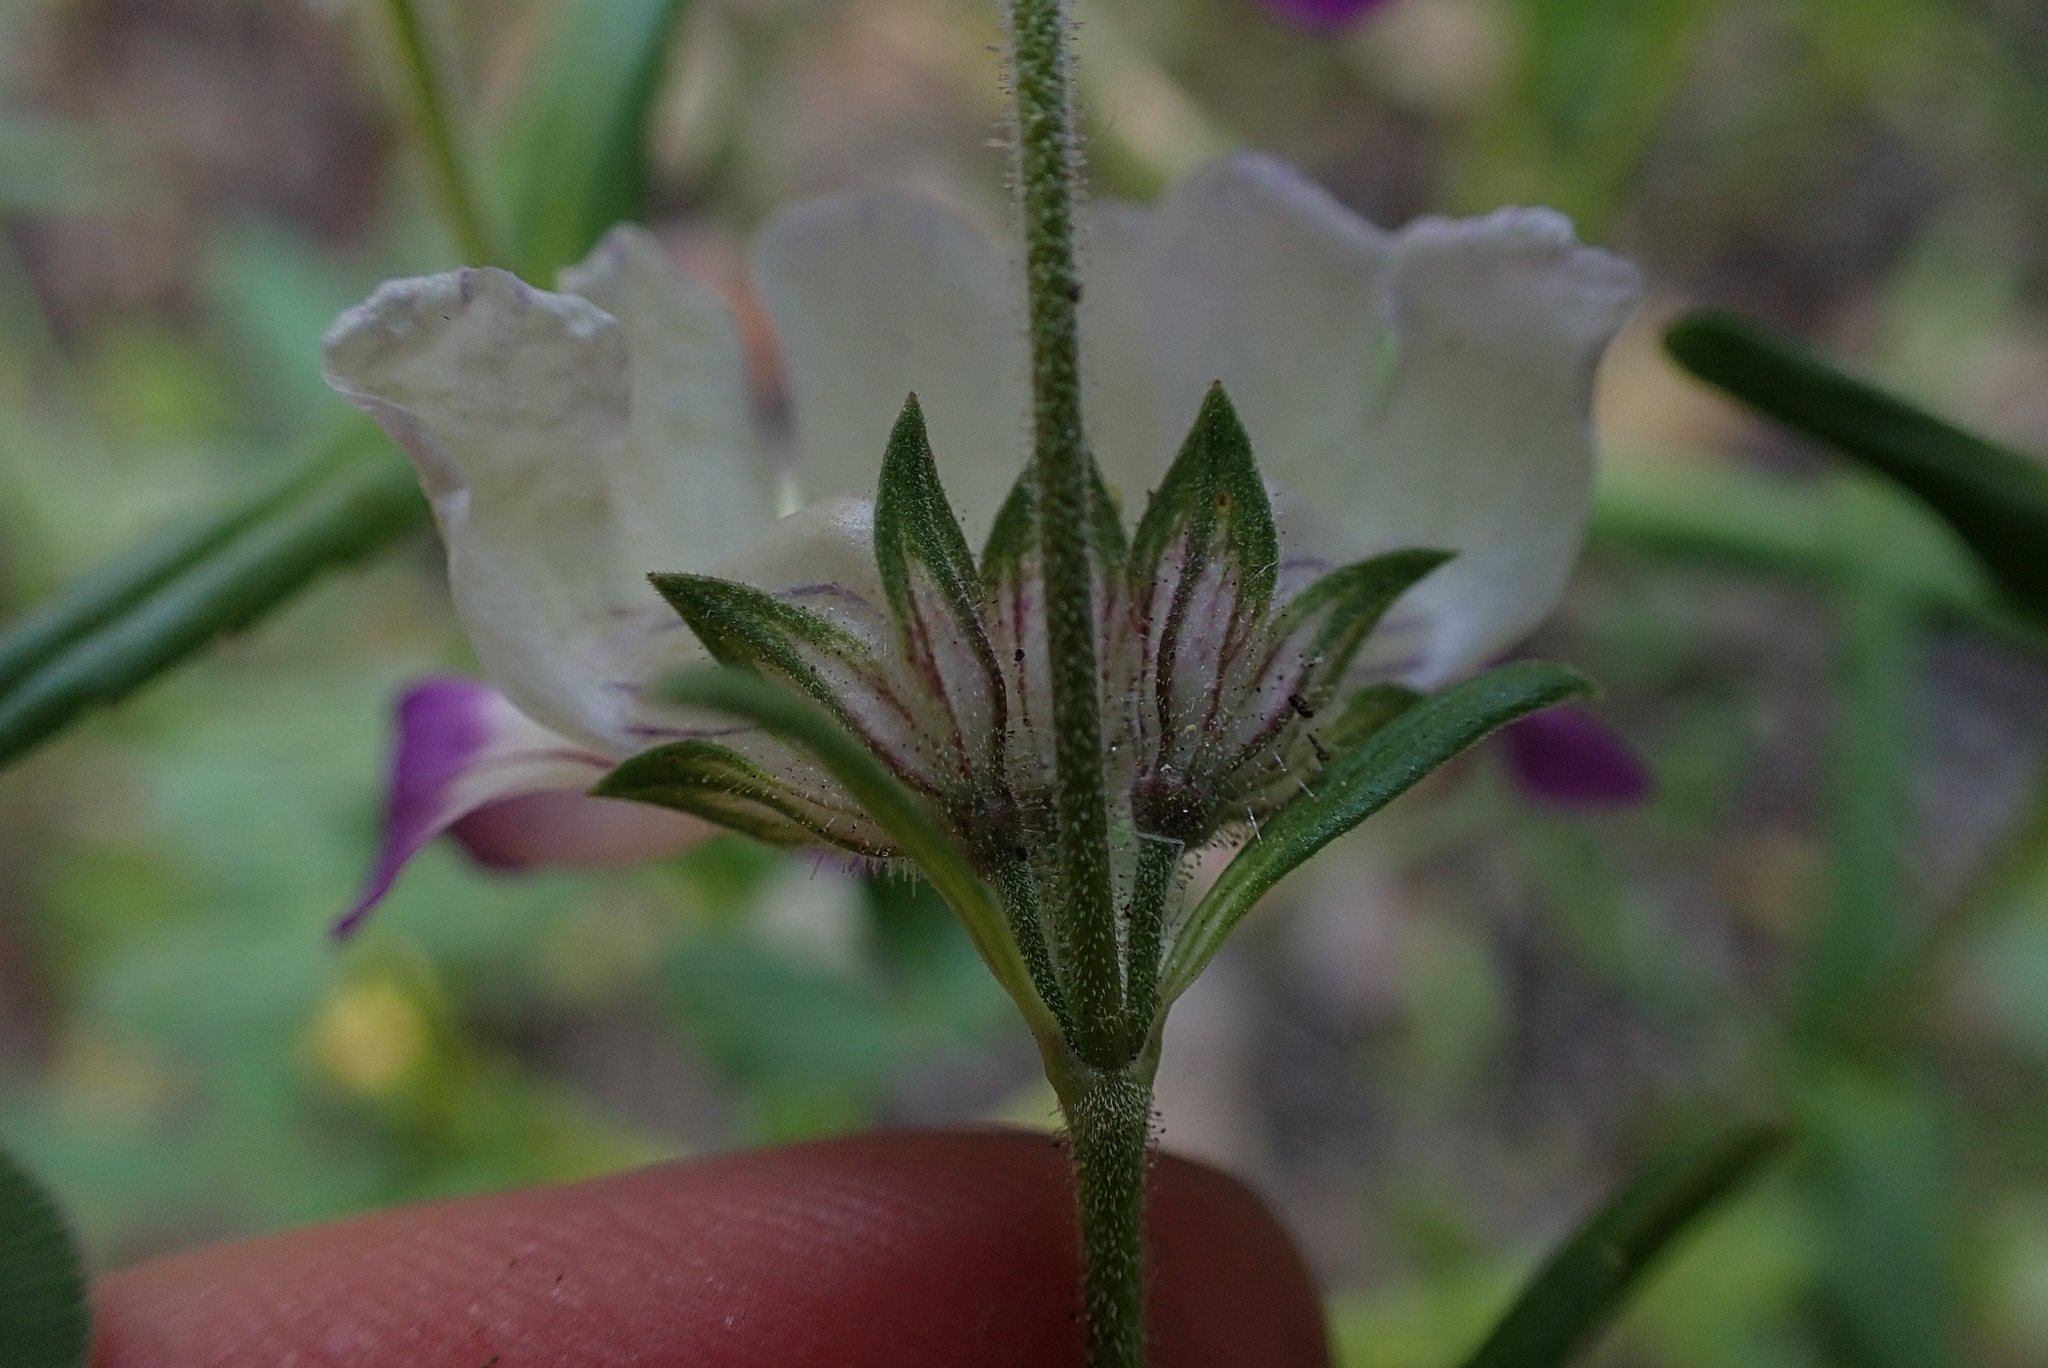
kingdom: Plantae
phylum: Tracheophyta
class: Magnoliopsida
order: Lamiales
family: Plantaginaceae
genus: Collinsia
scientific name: Collinsia heterophylla
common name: Chinese-houses
